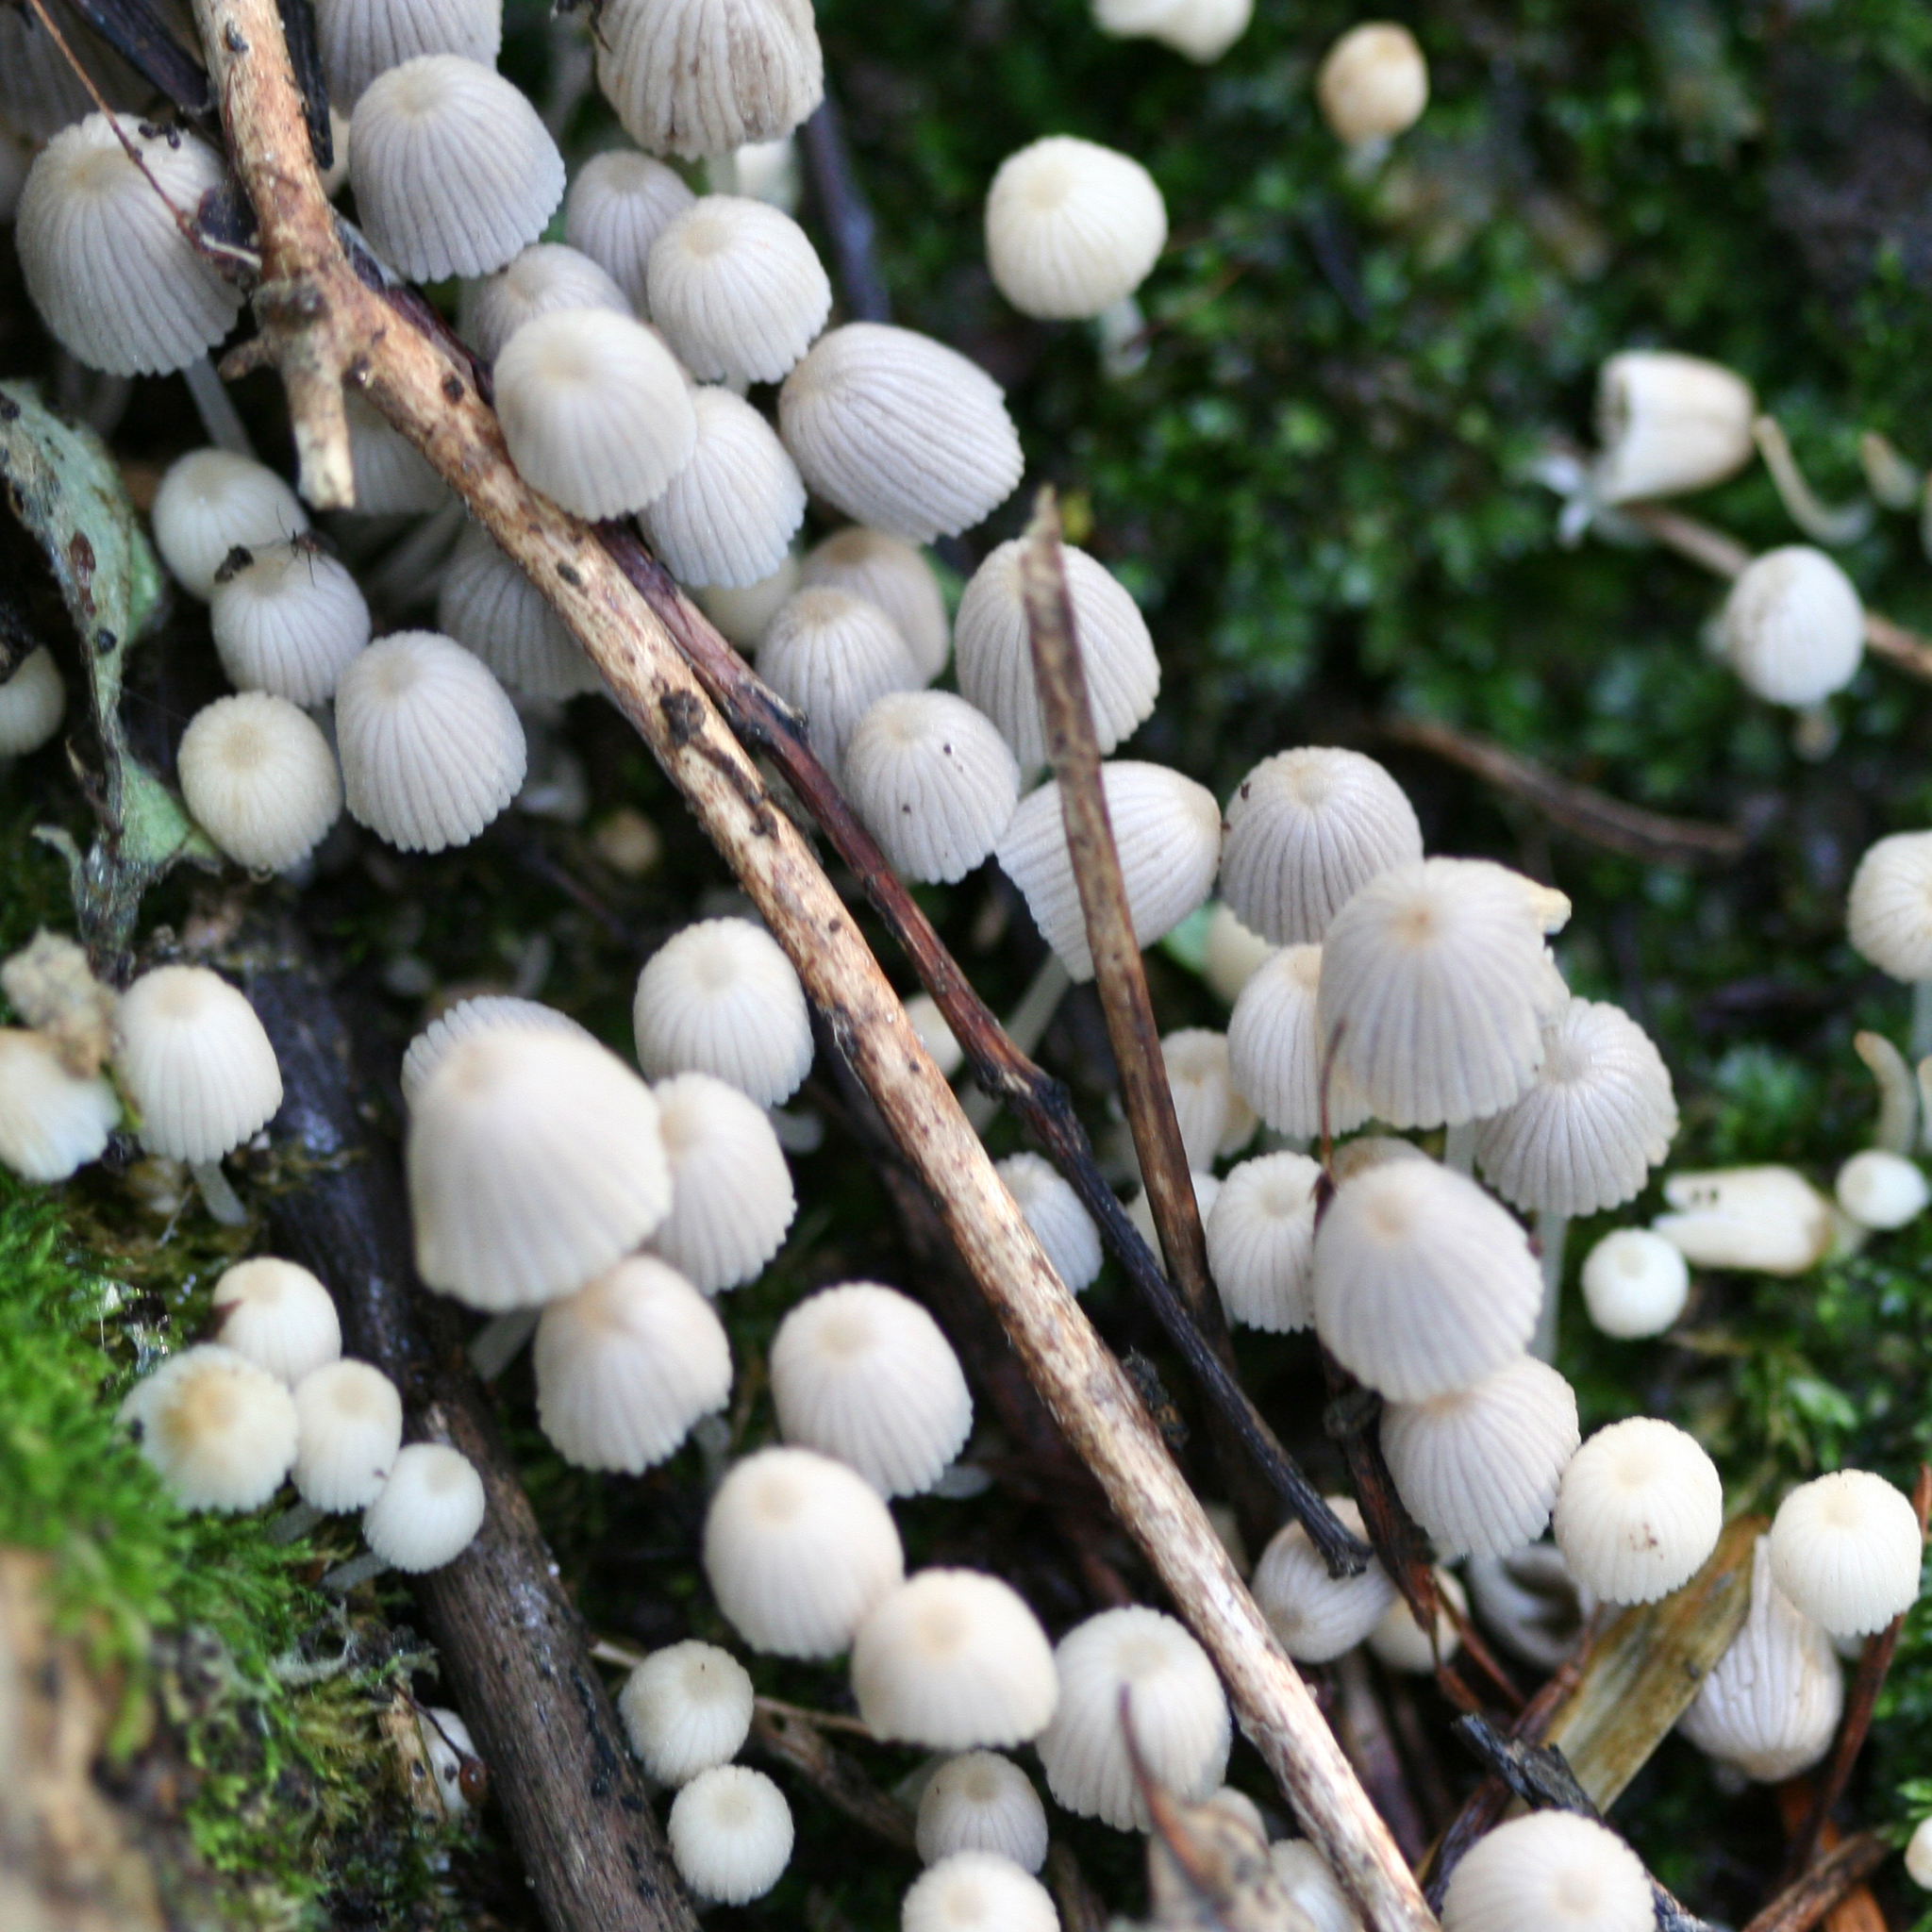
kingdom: Fungi
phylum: Basidiomycota
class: Agaricomycetes
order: Agaricales
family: Psathyrellaceae
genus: Coprinellus
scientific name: Coprinellus disseminatus
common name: Fairies' bonnets
